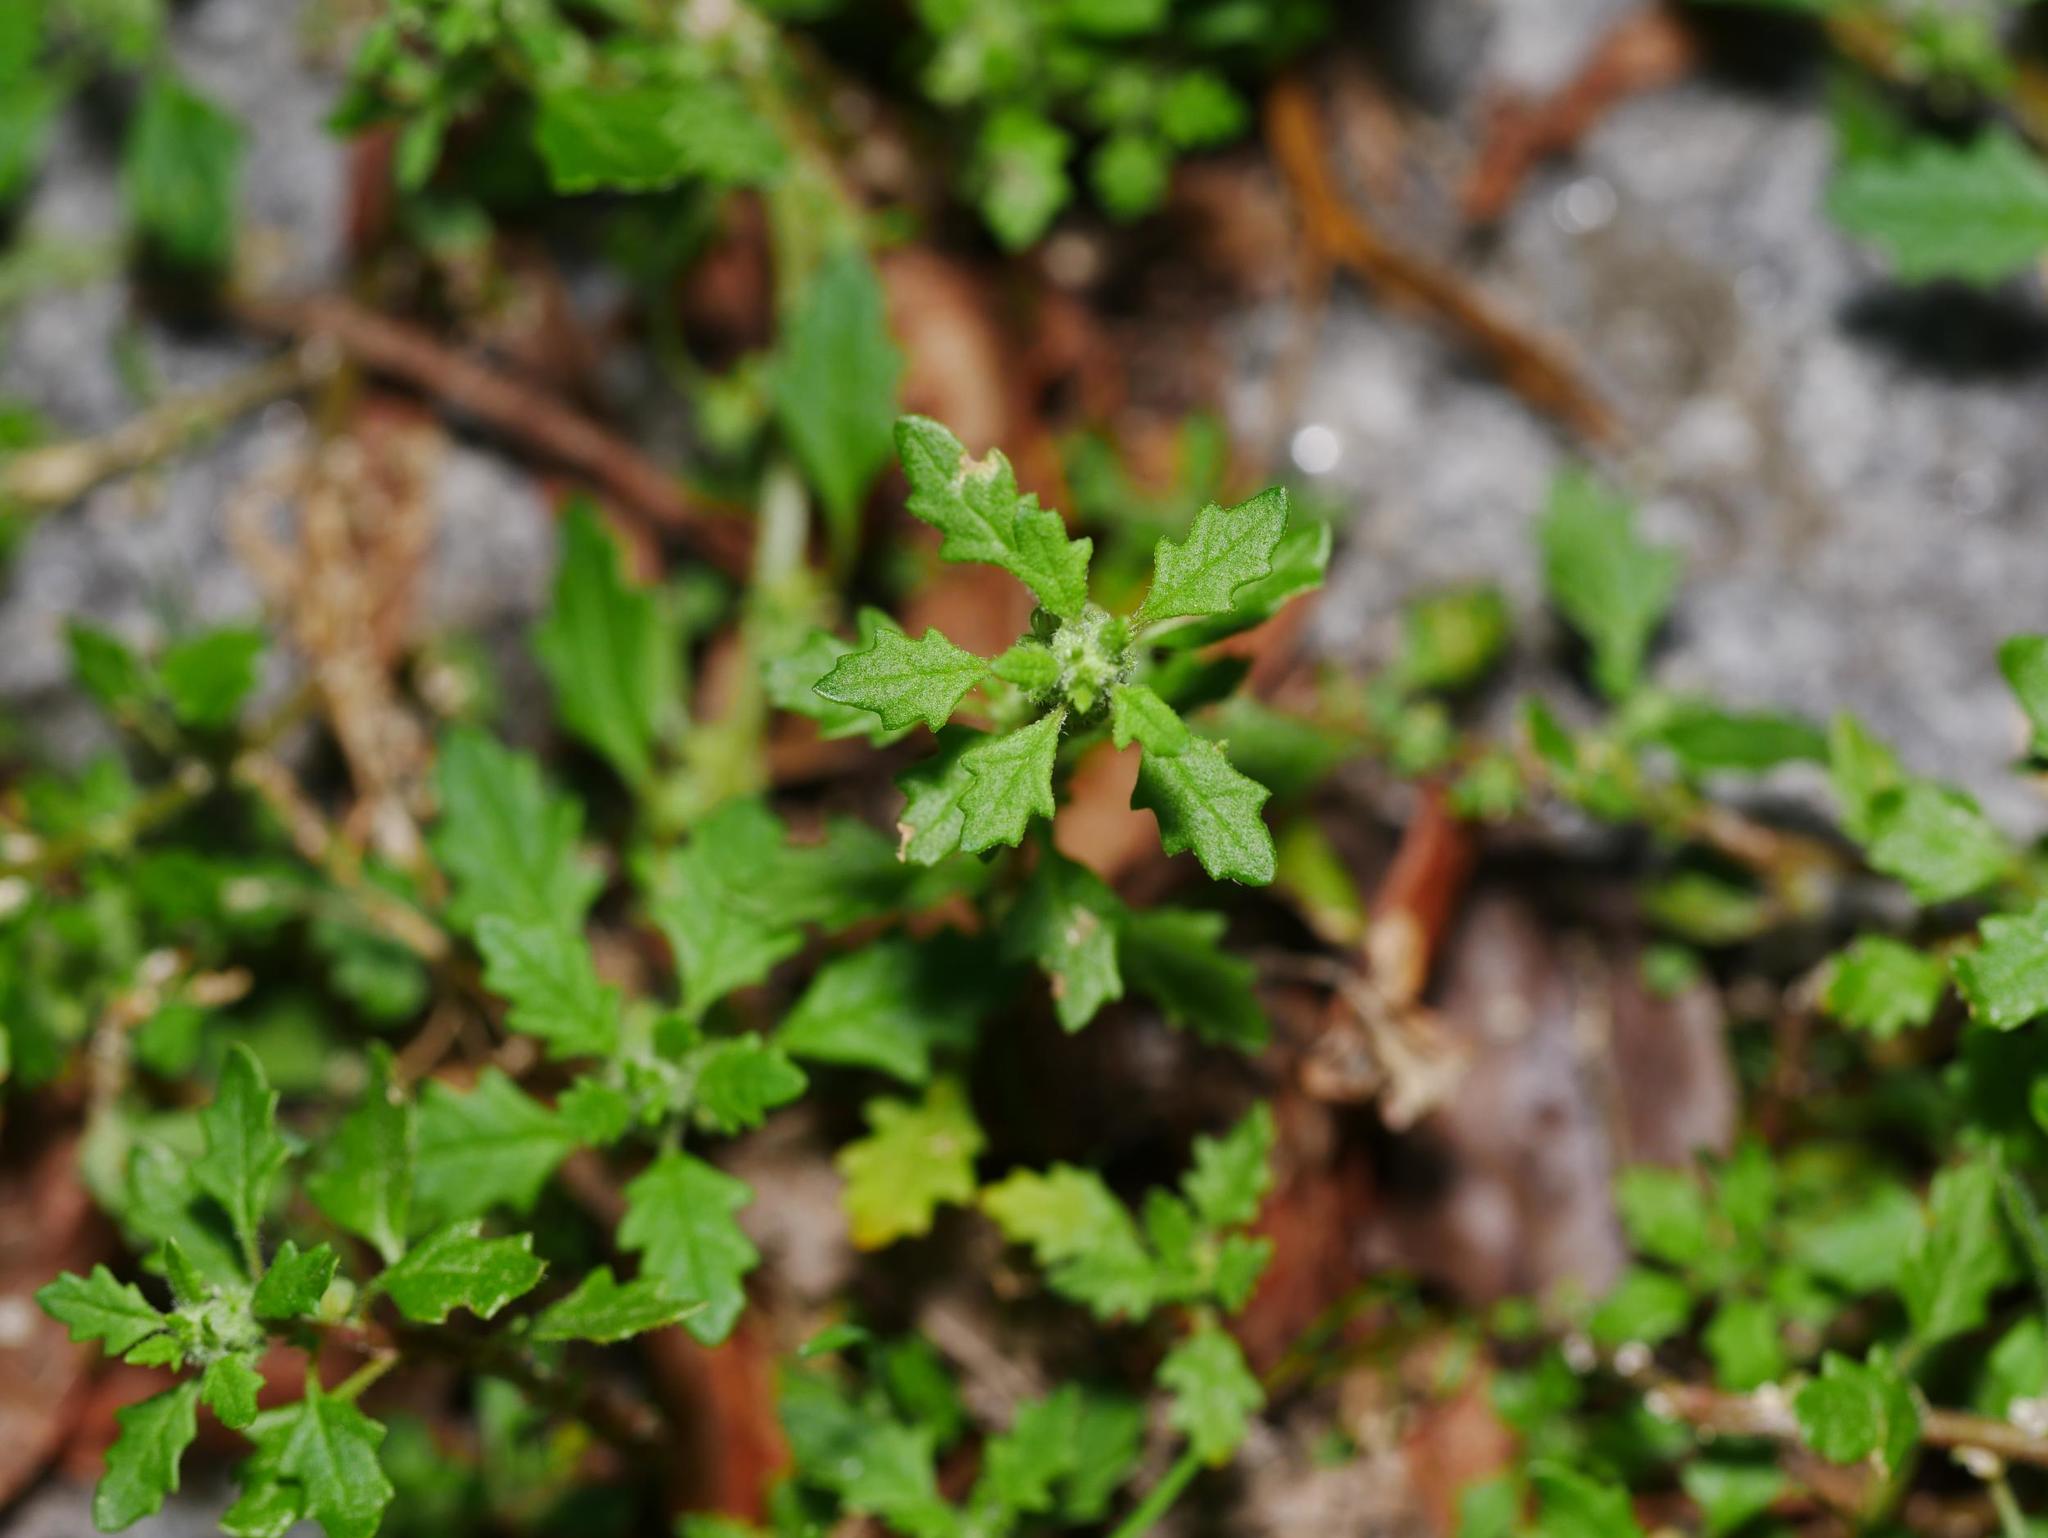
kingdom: Plantae
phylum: Tracheophyta
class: Magnoliopsida
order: Caryophyllales
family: Amaranthaceae
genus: Dysphania
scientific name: Dysphania pumilio
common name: Clammy goosefoot
